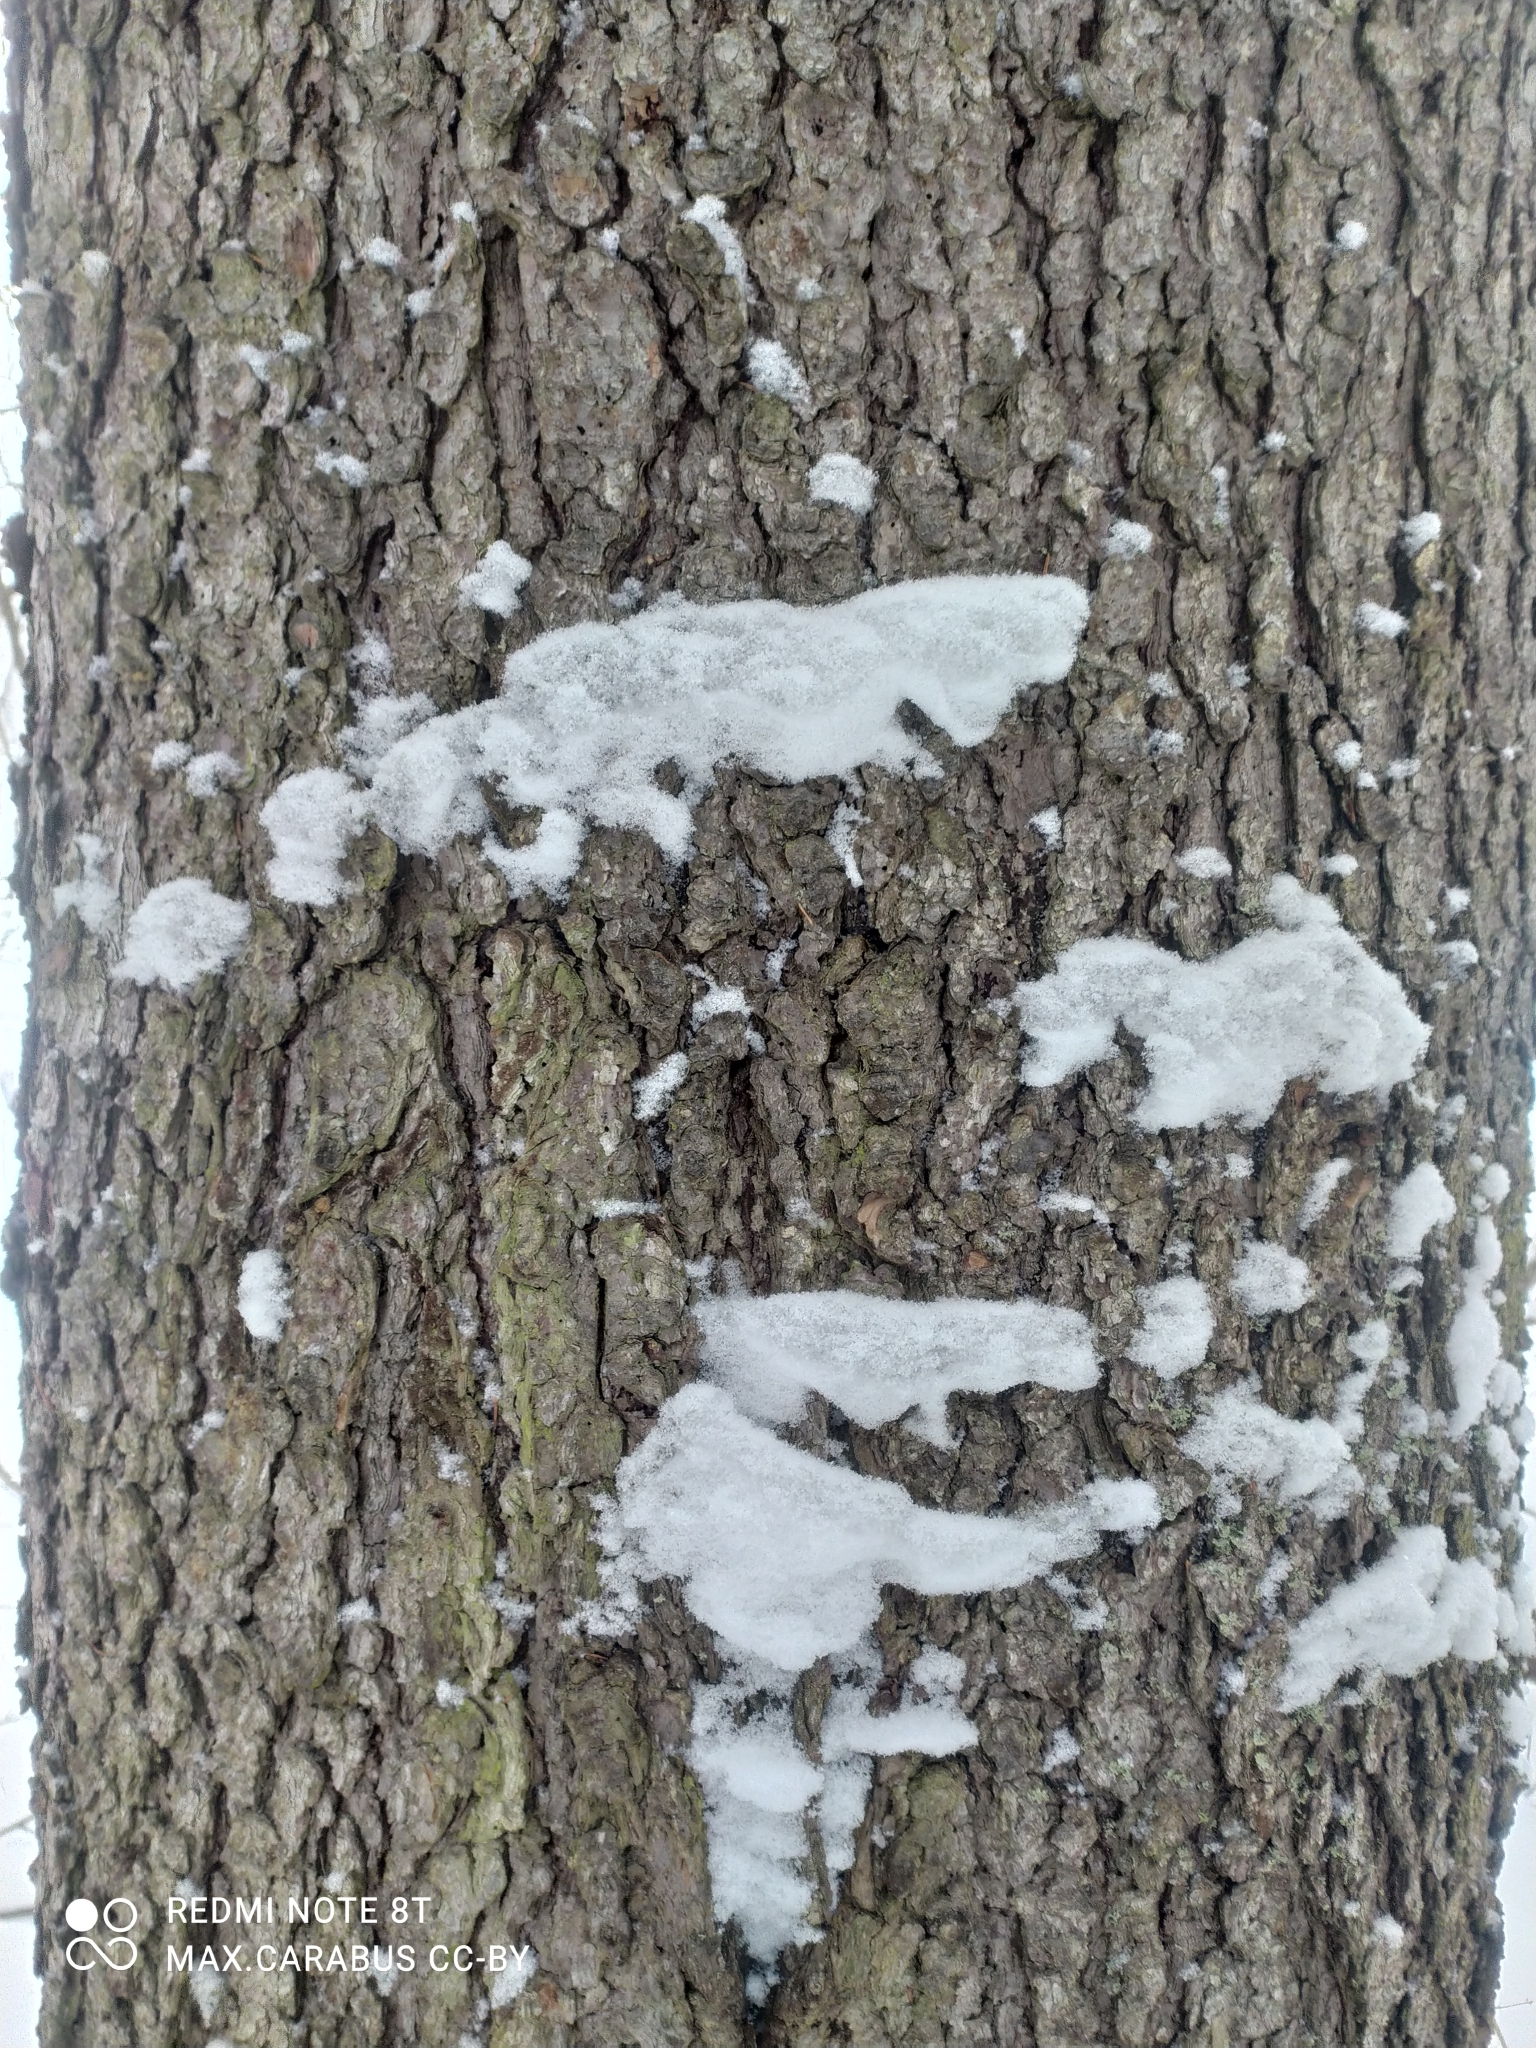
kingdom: Plantae
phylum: Tracheophyta
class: Pinopsida
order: Pinales
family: Pinaceae
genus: Picea
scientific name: Picea abies
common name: Norway spruce
